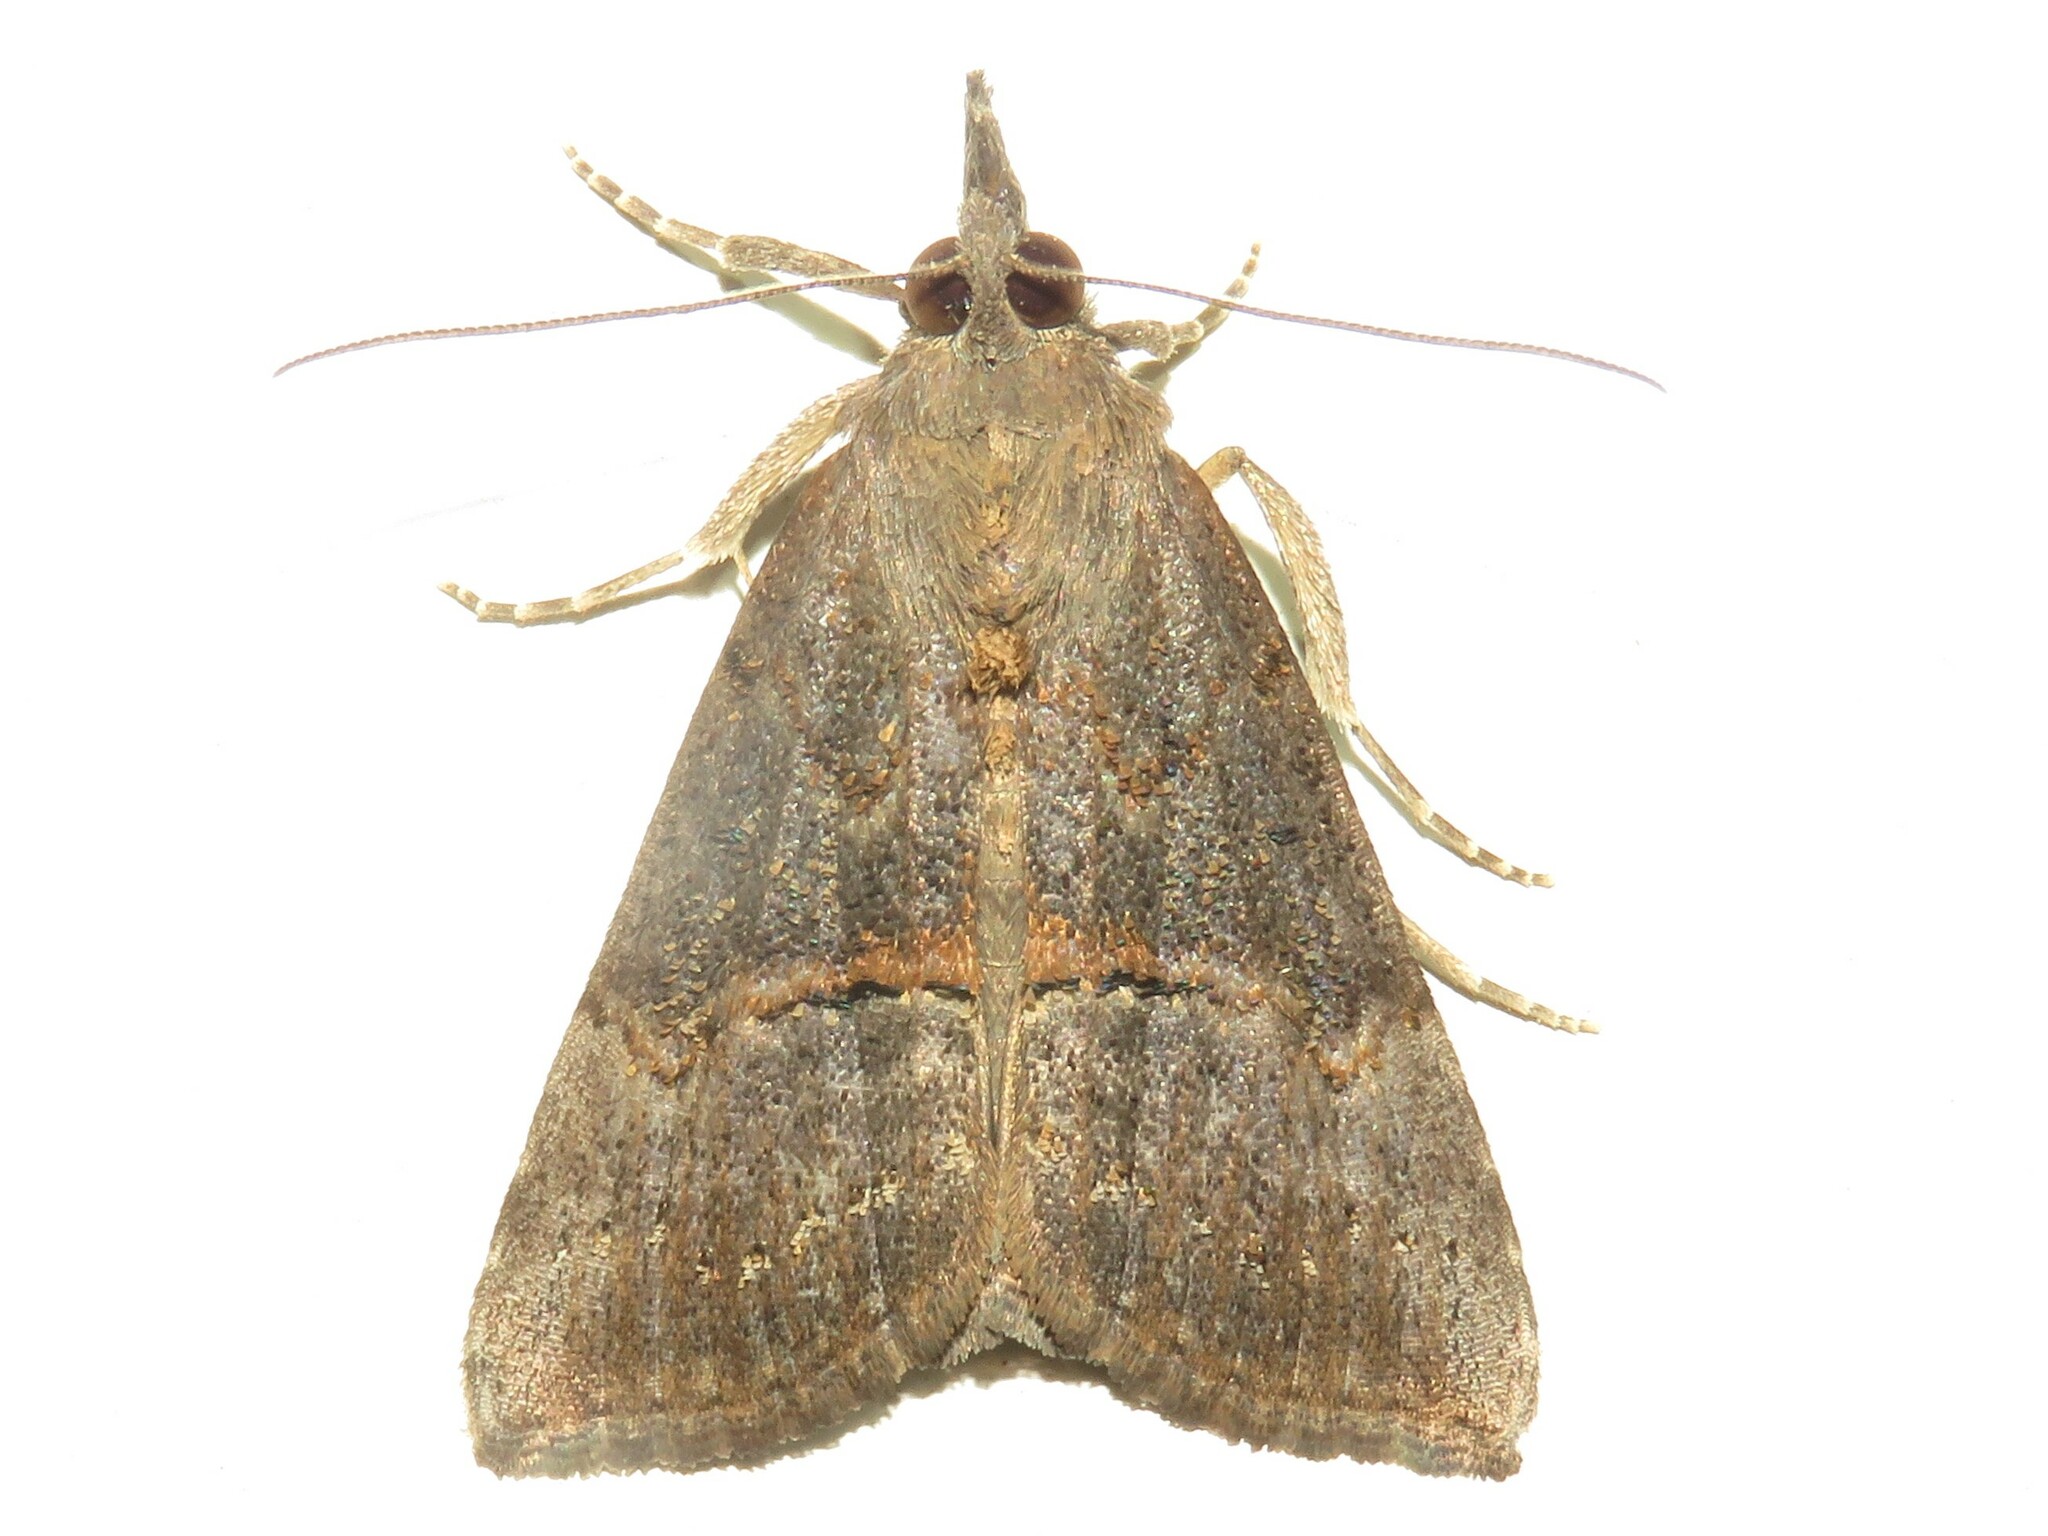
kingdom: Animalia
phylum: Arthropoda
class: Insecta
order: Lepidoptera
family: Erebidae
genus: Hypena
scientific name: Hypena scabra
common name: Green cloverworm
